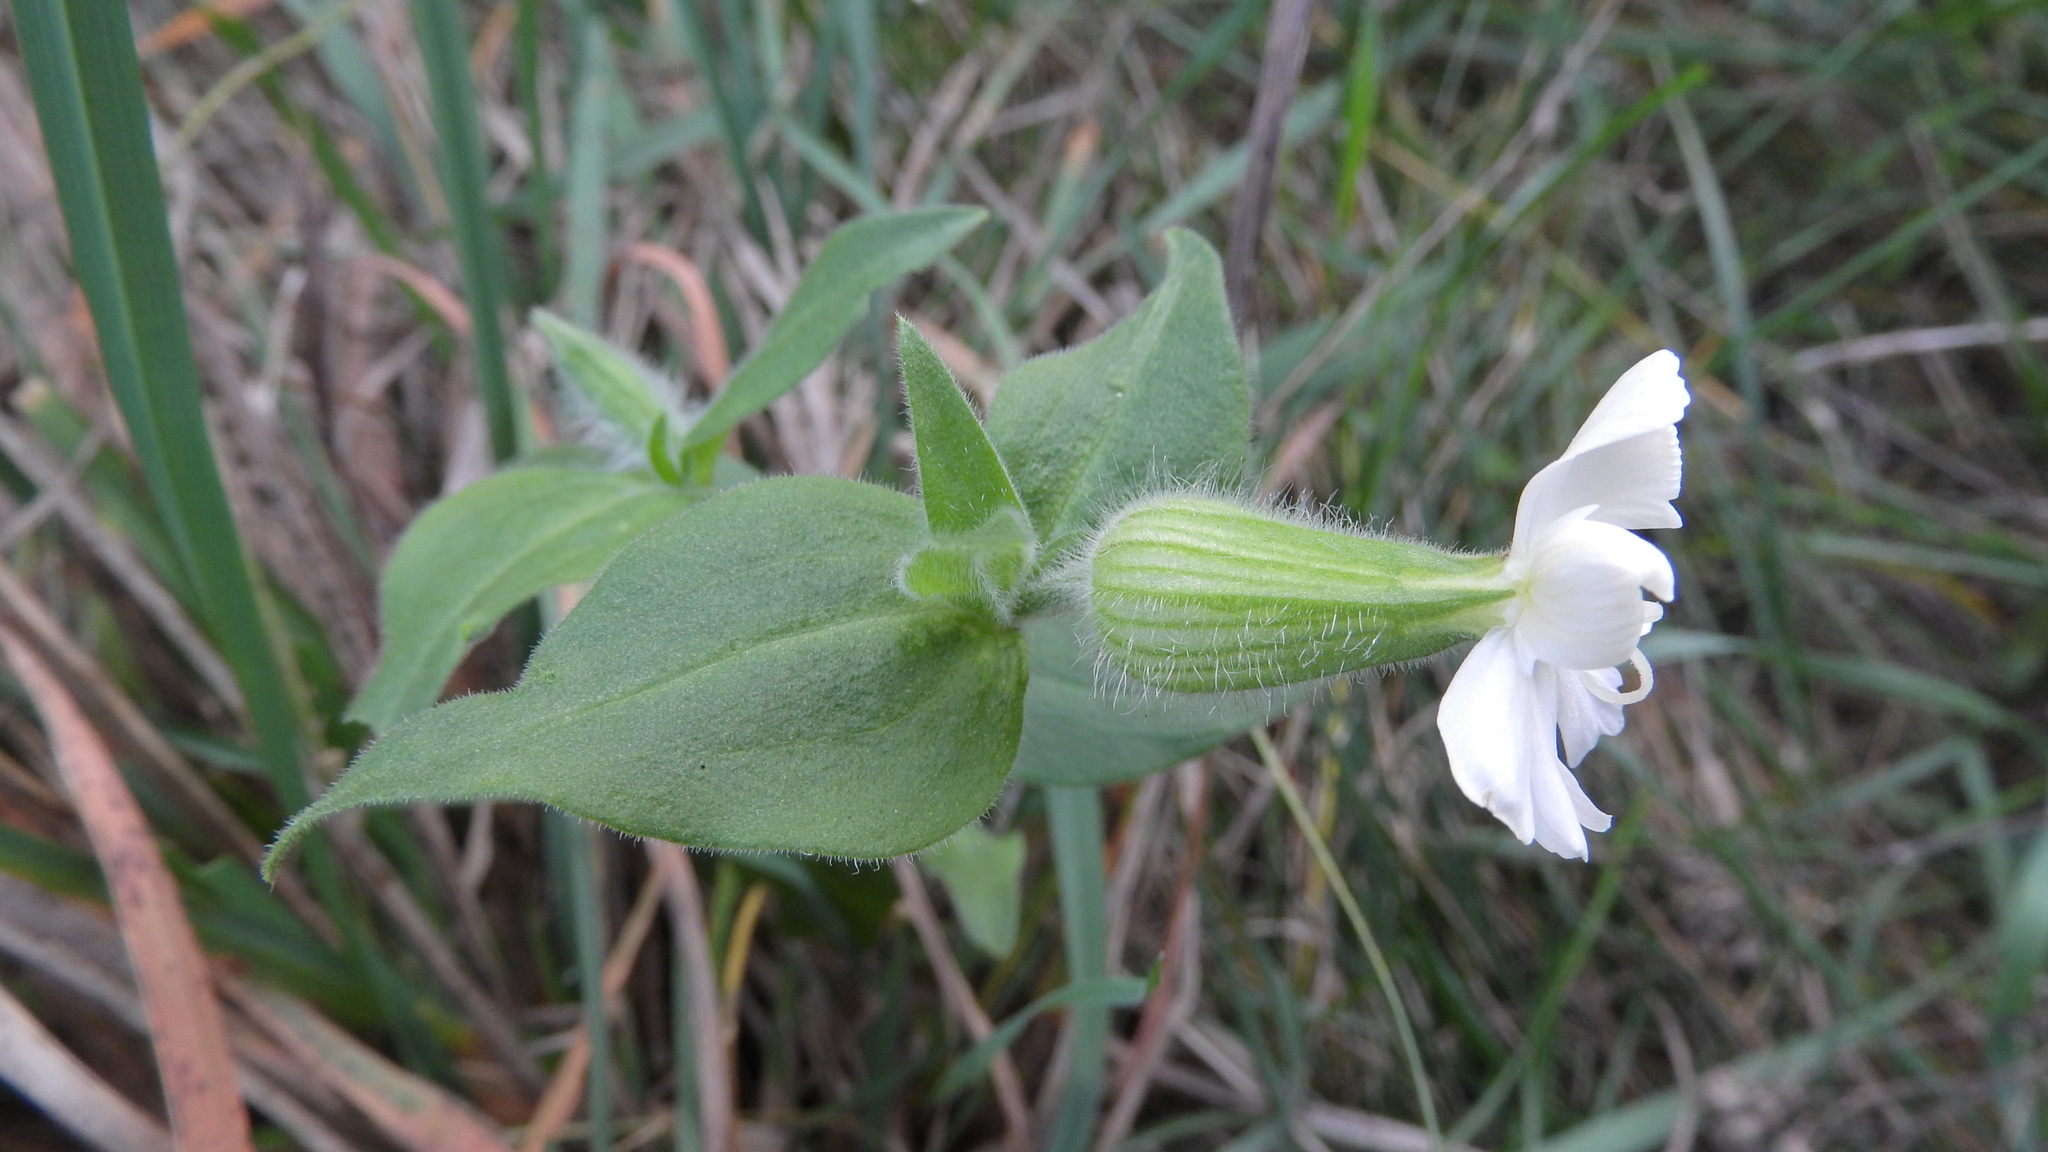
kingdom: Plantae
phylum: Tracheophyta
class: Magnoliopsida
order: Caryophyllales
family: Caryophyllaceae
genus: Silene
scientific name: Silene latifolia
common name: White campion
